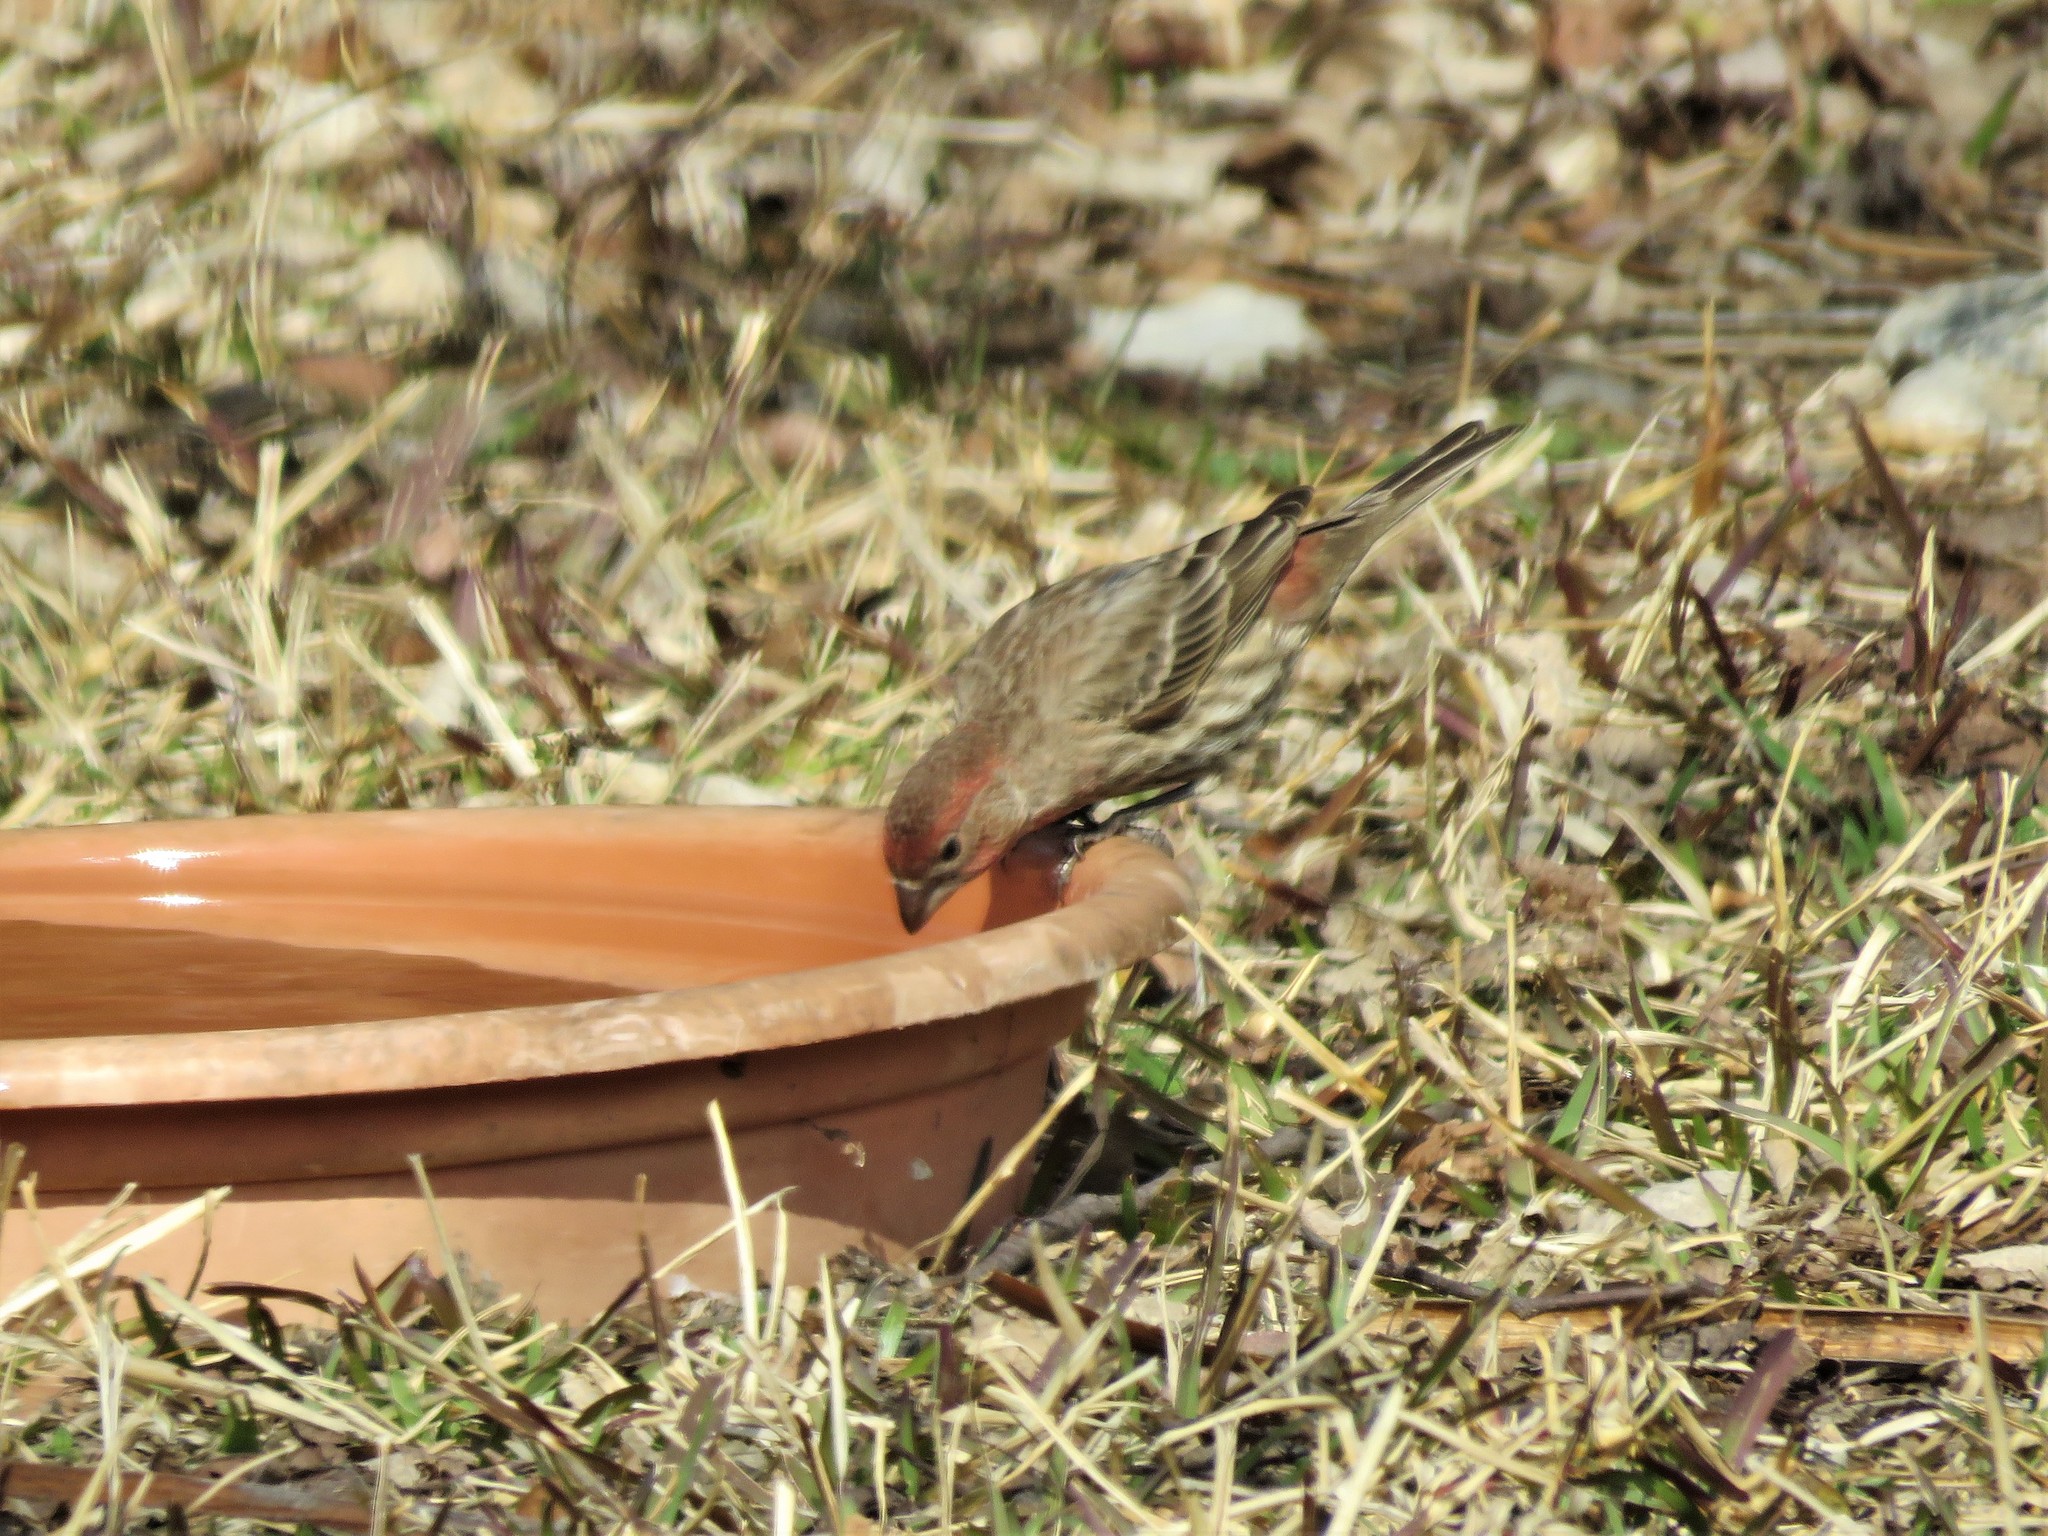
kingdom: Animalia
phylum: Chordata
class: Aves
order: Passeriformes
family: Fringillidae
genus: Haemorhous
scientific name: Haemorhous mexicanus
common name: House finch
